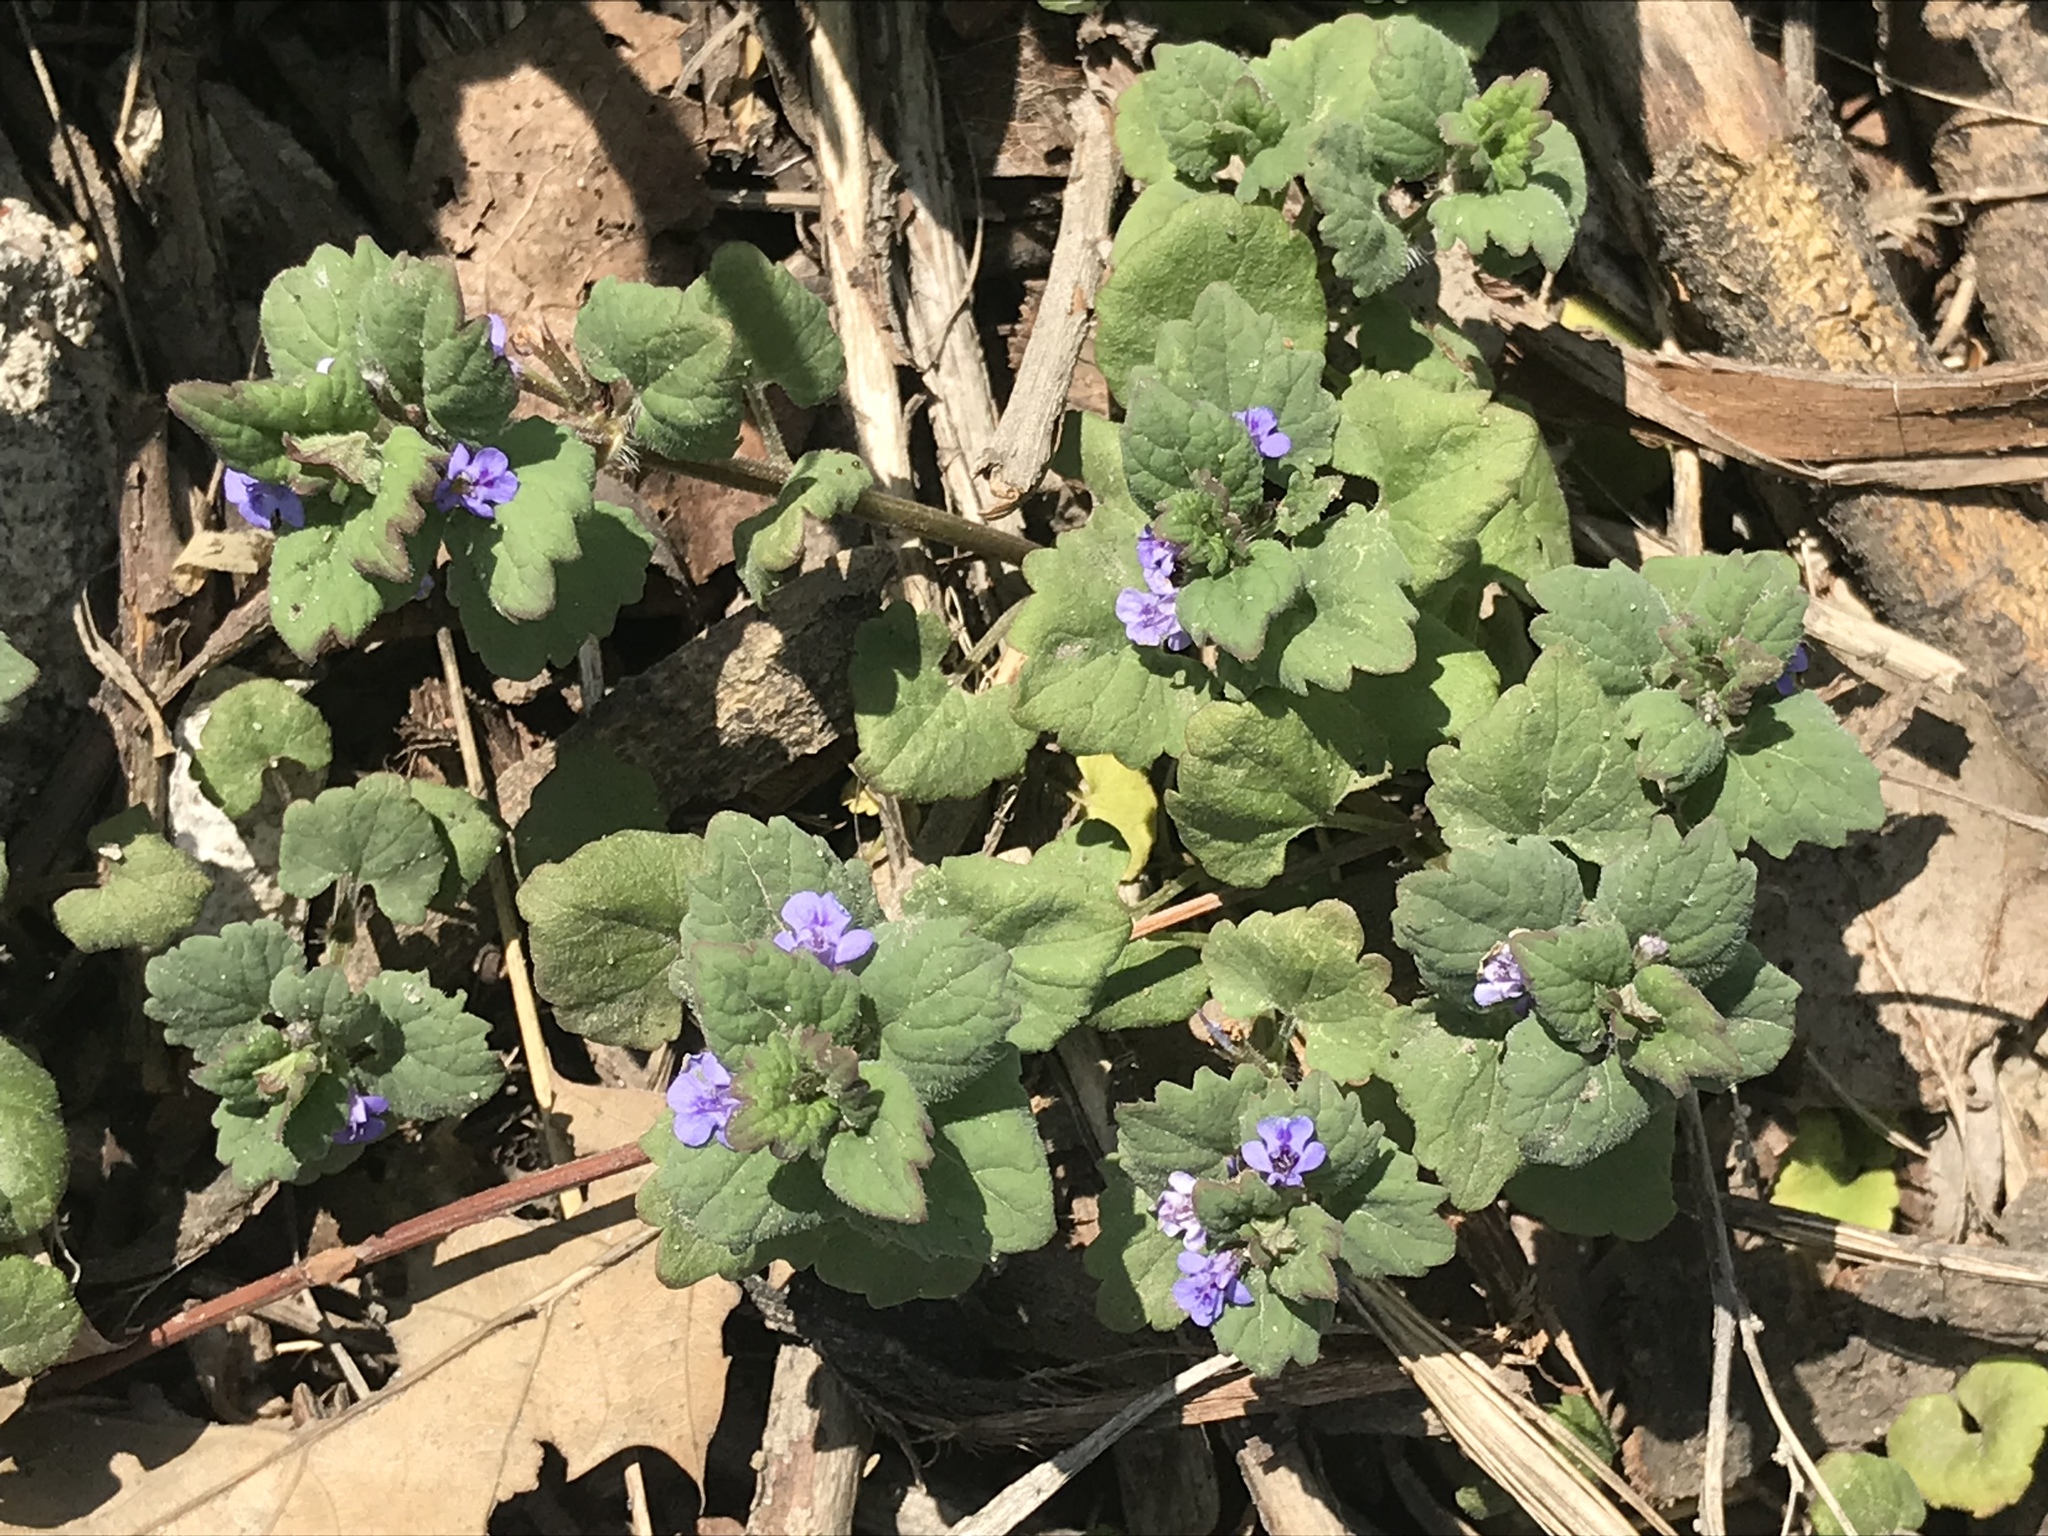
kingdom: Plantae
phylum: Tracheophyta
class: Magnoliopsida
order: Lamiales
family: Lamiaceae
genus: Glechoma
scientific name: Glechoma hederacea
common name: Ground ivy
